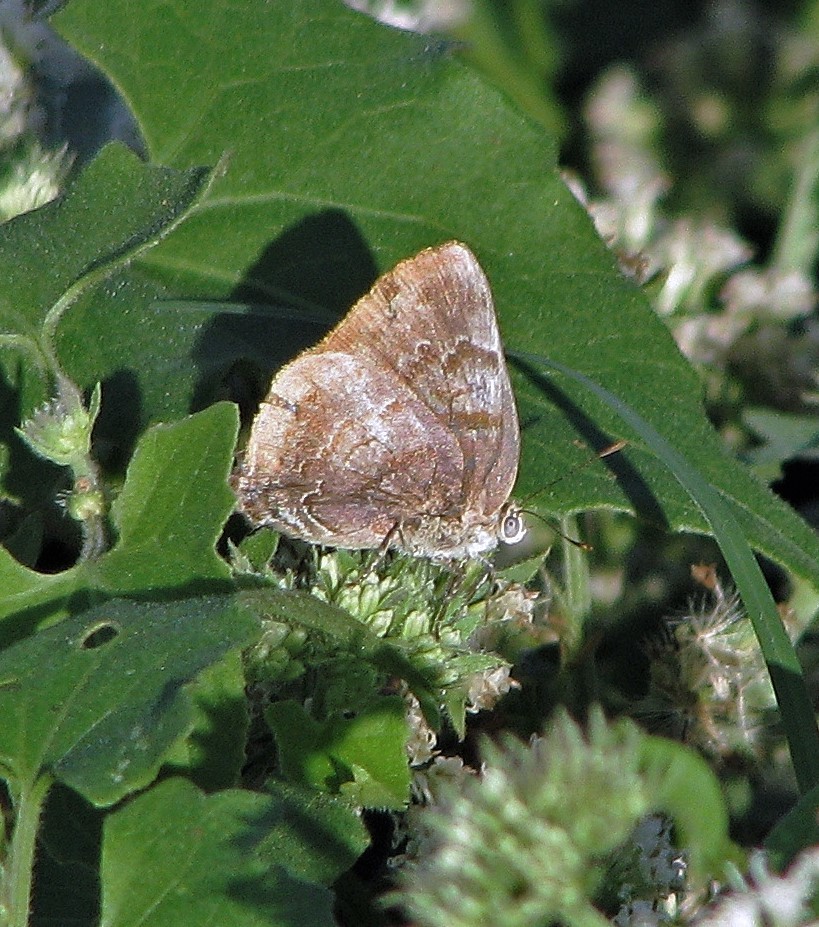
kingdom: Animalia
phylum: Arthropoda
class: Insecta
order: Lepidoptera
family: Lycaenidae
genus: Rekoa
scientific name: Rekoa palegon
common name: Gold-bordered hairstreak
